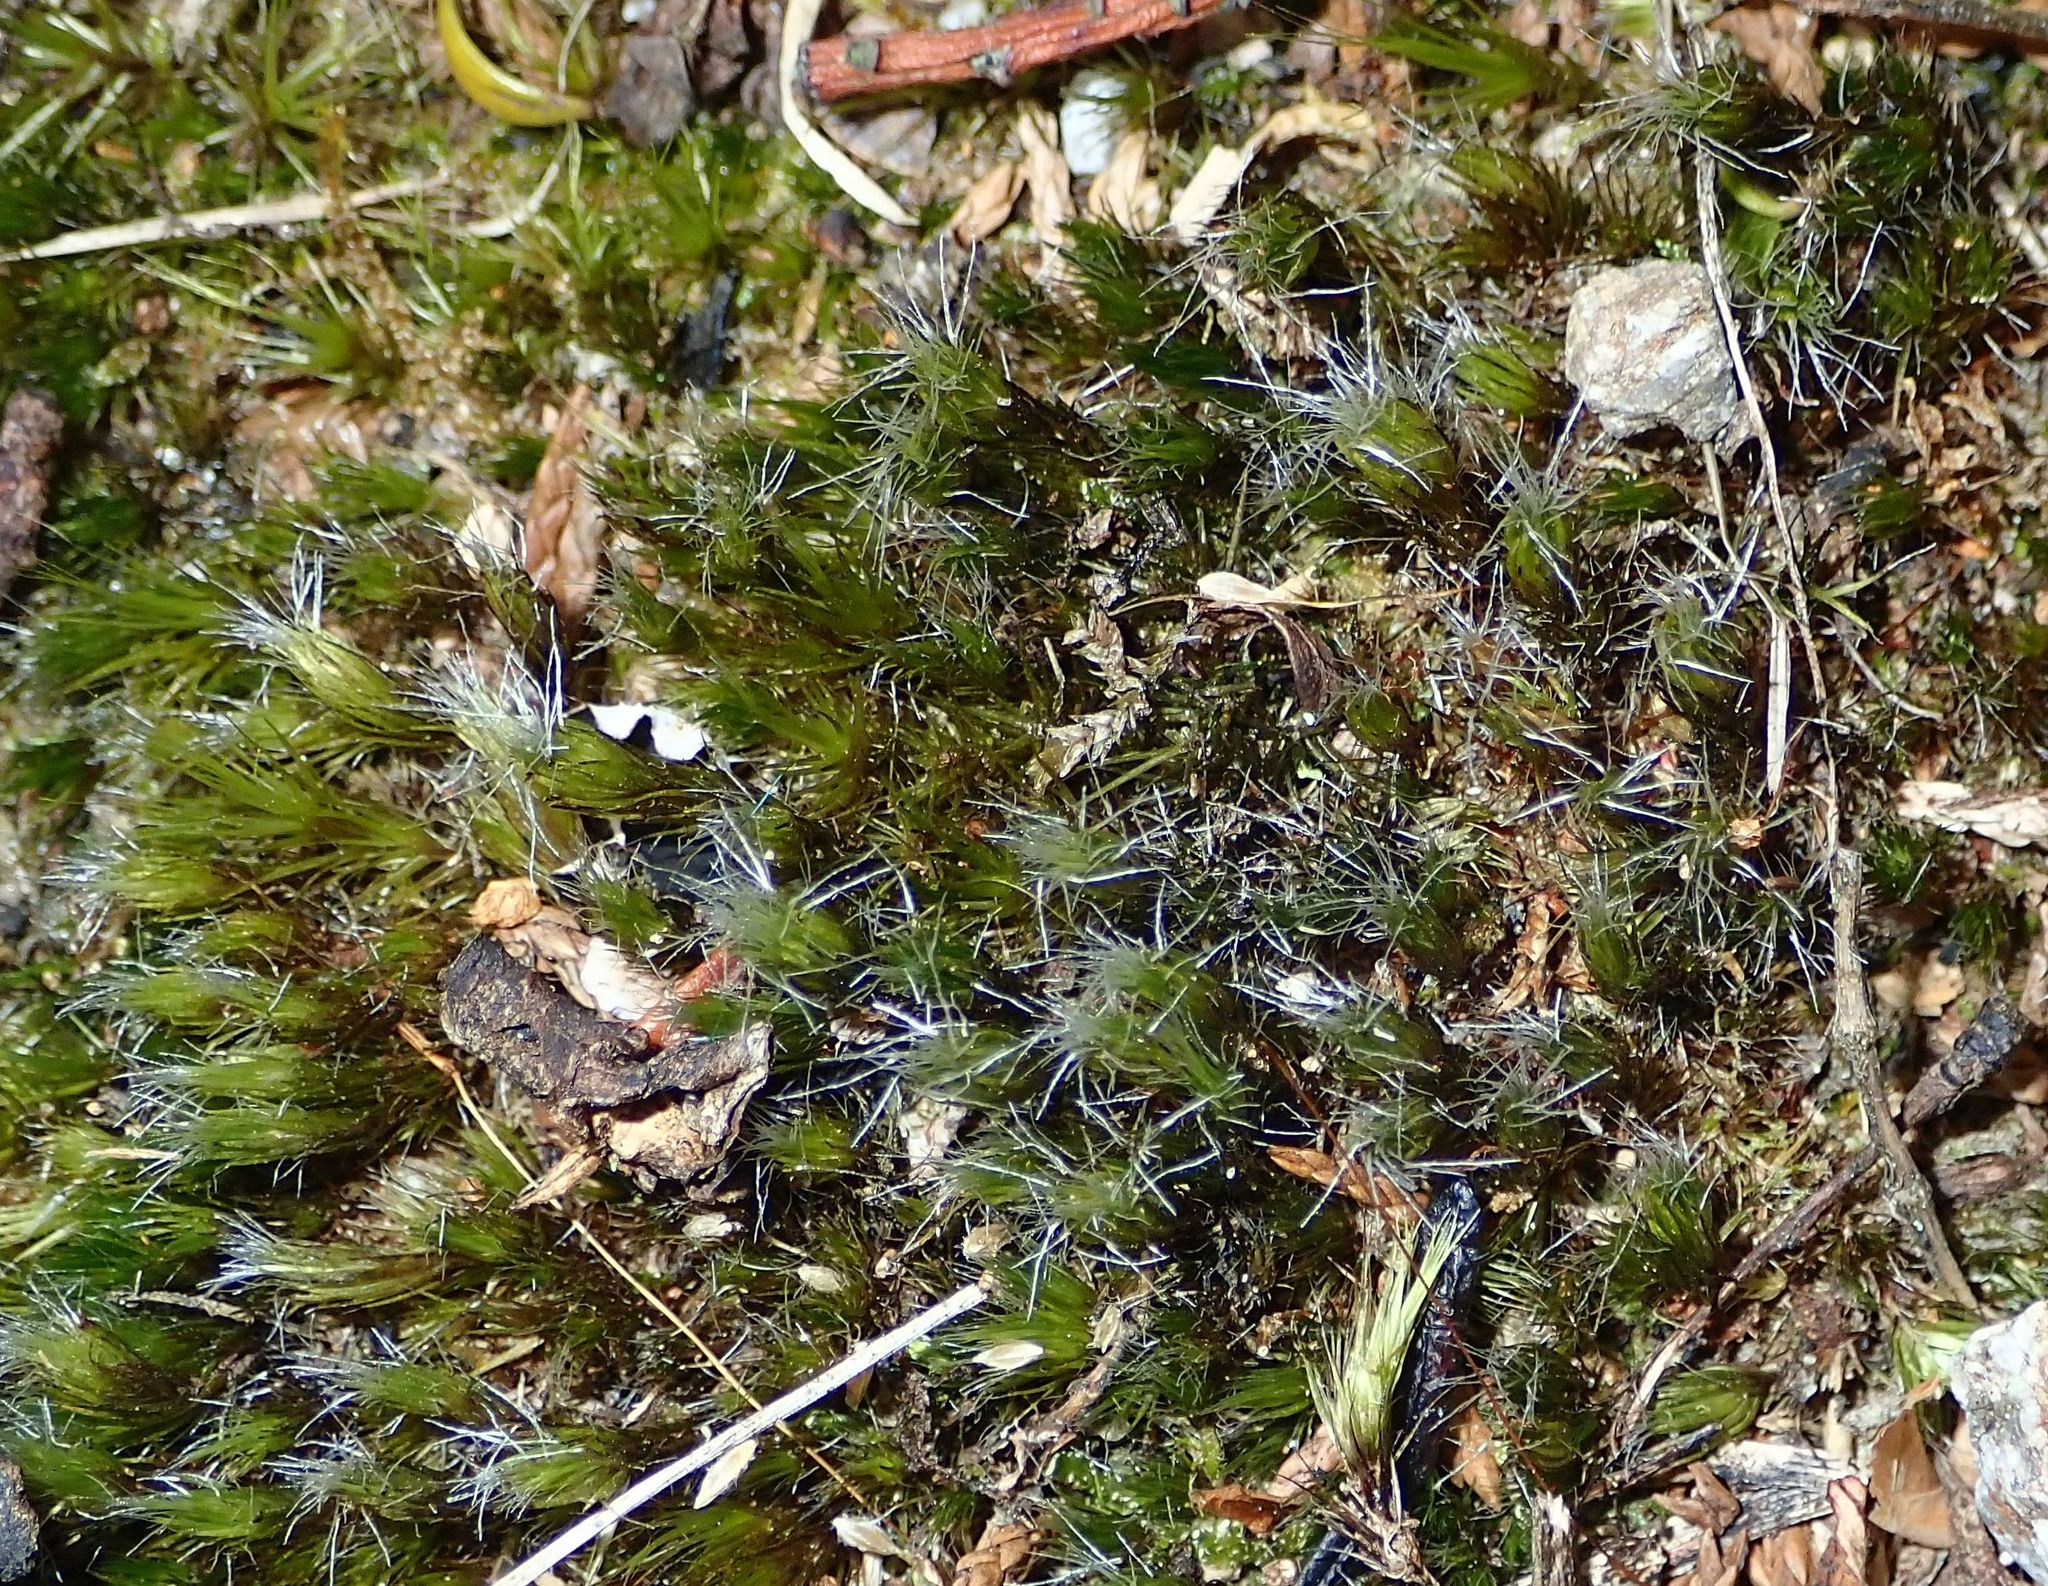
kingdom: Plantae
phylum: Bryophyta
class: Bryopsida
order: Dicranales
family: Leucobryaceae
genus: Campylopus
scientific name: Campylopus introflexus
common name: Heath star moss
